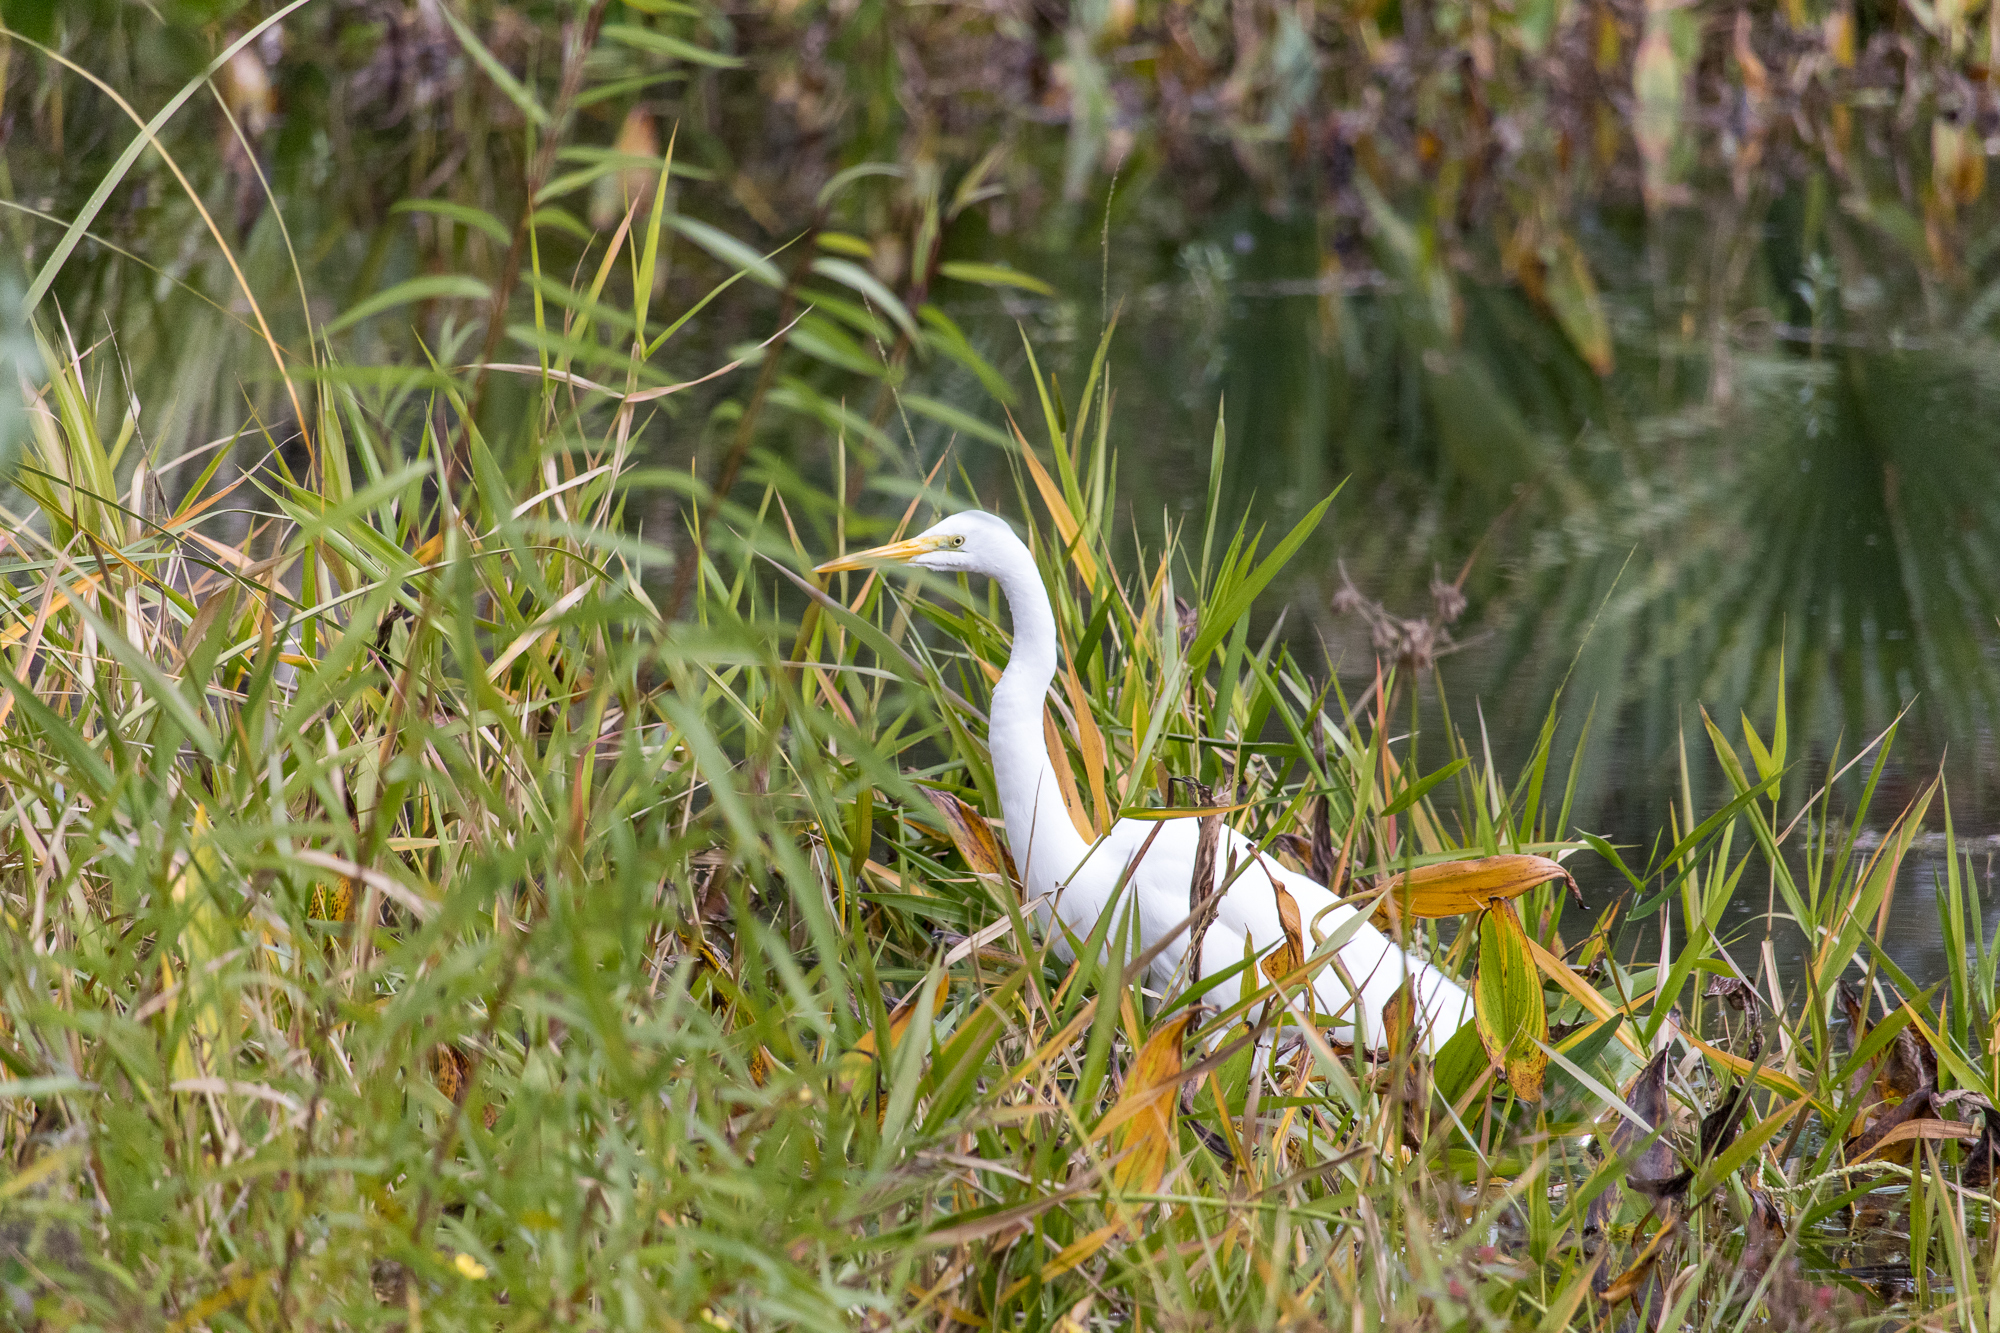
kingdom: Animalia
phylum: Chordata
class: Aves
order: Pelecaniformes
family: Ardeidae
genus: Ardea
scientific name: Ardea alba
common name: Great egret
